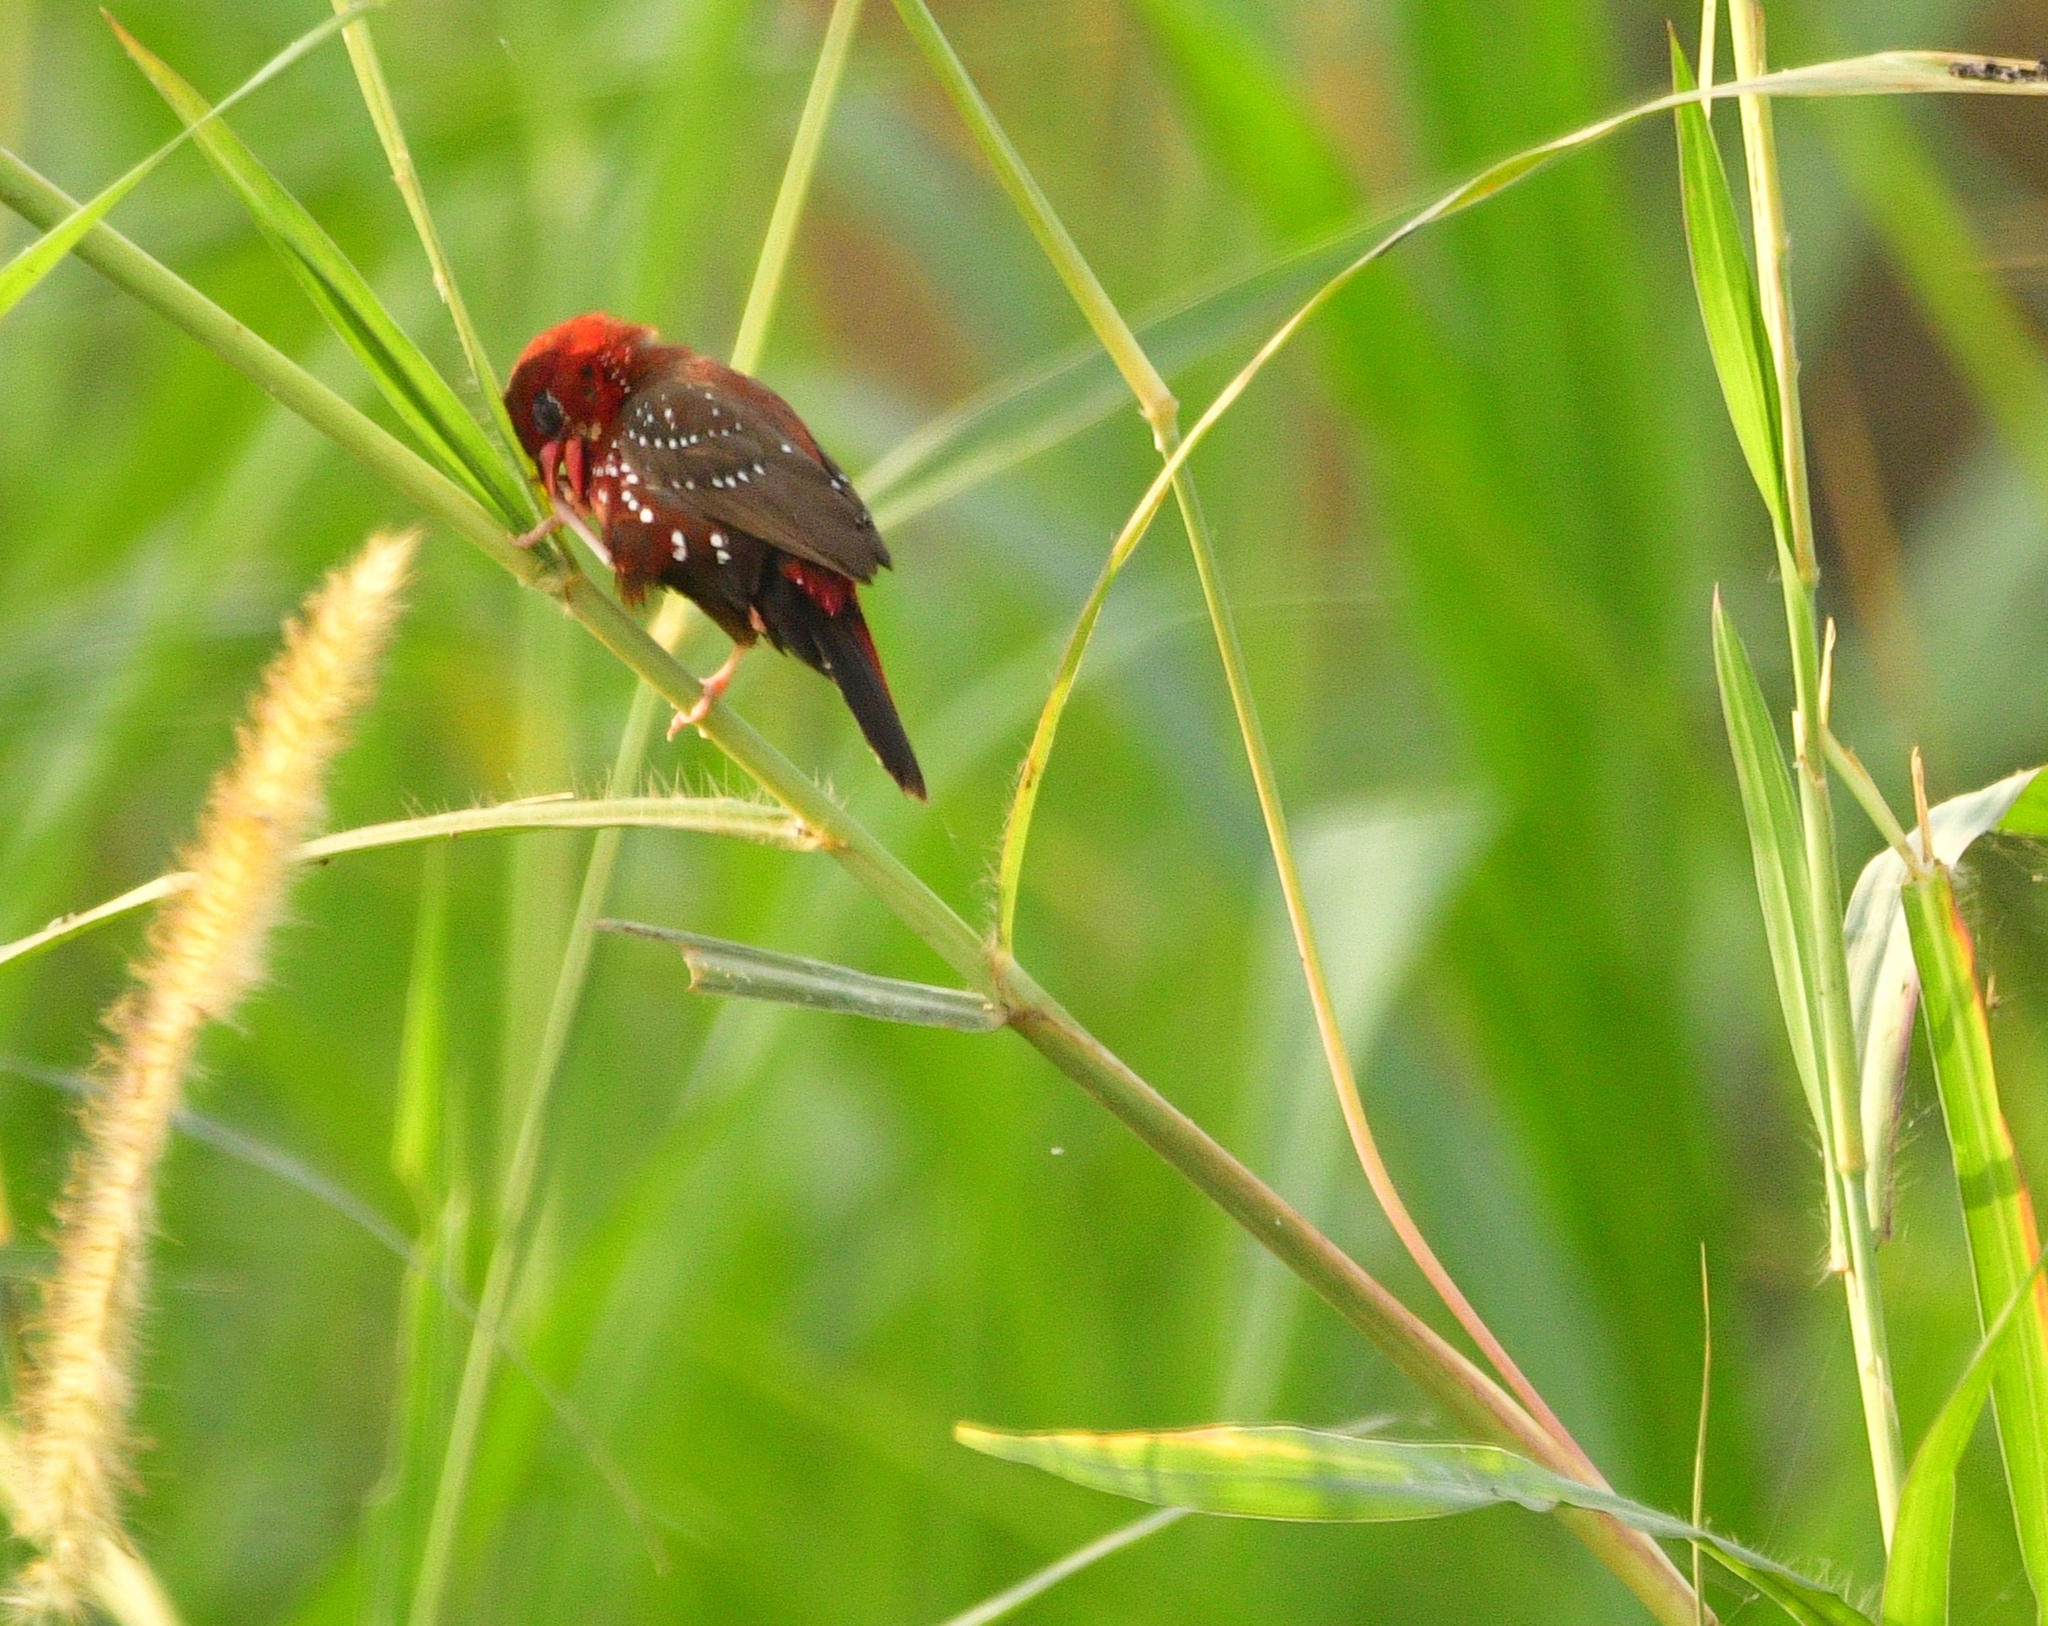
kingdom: Animalia
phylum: Chordata
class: Aves
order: Passeriformes
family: Estrildidae
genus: Amandava
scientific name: Amandava amandava
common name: Red avadavat
